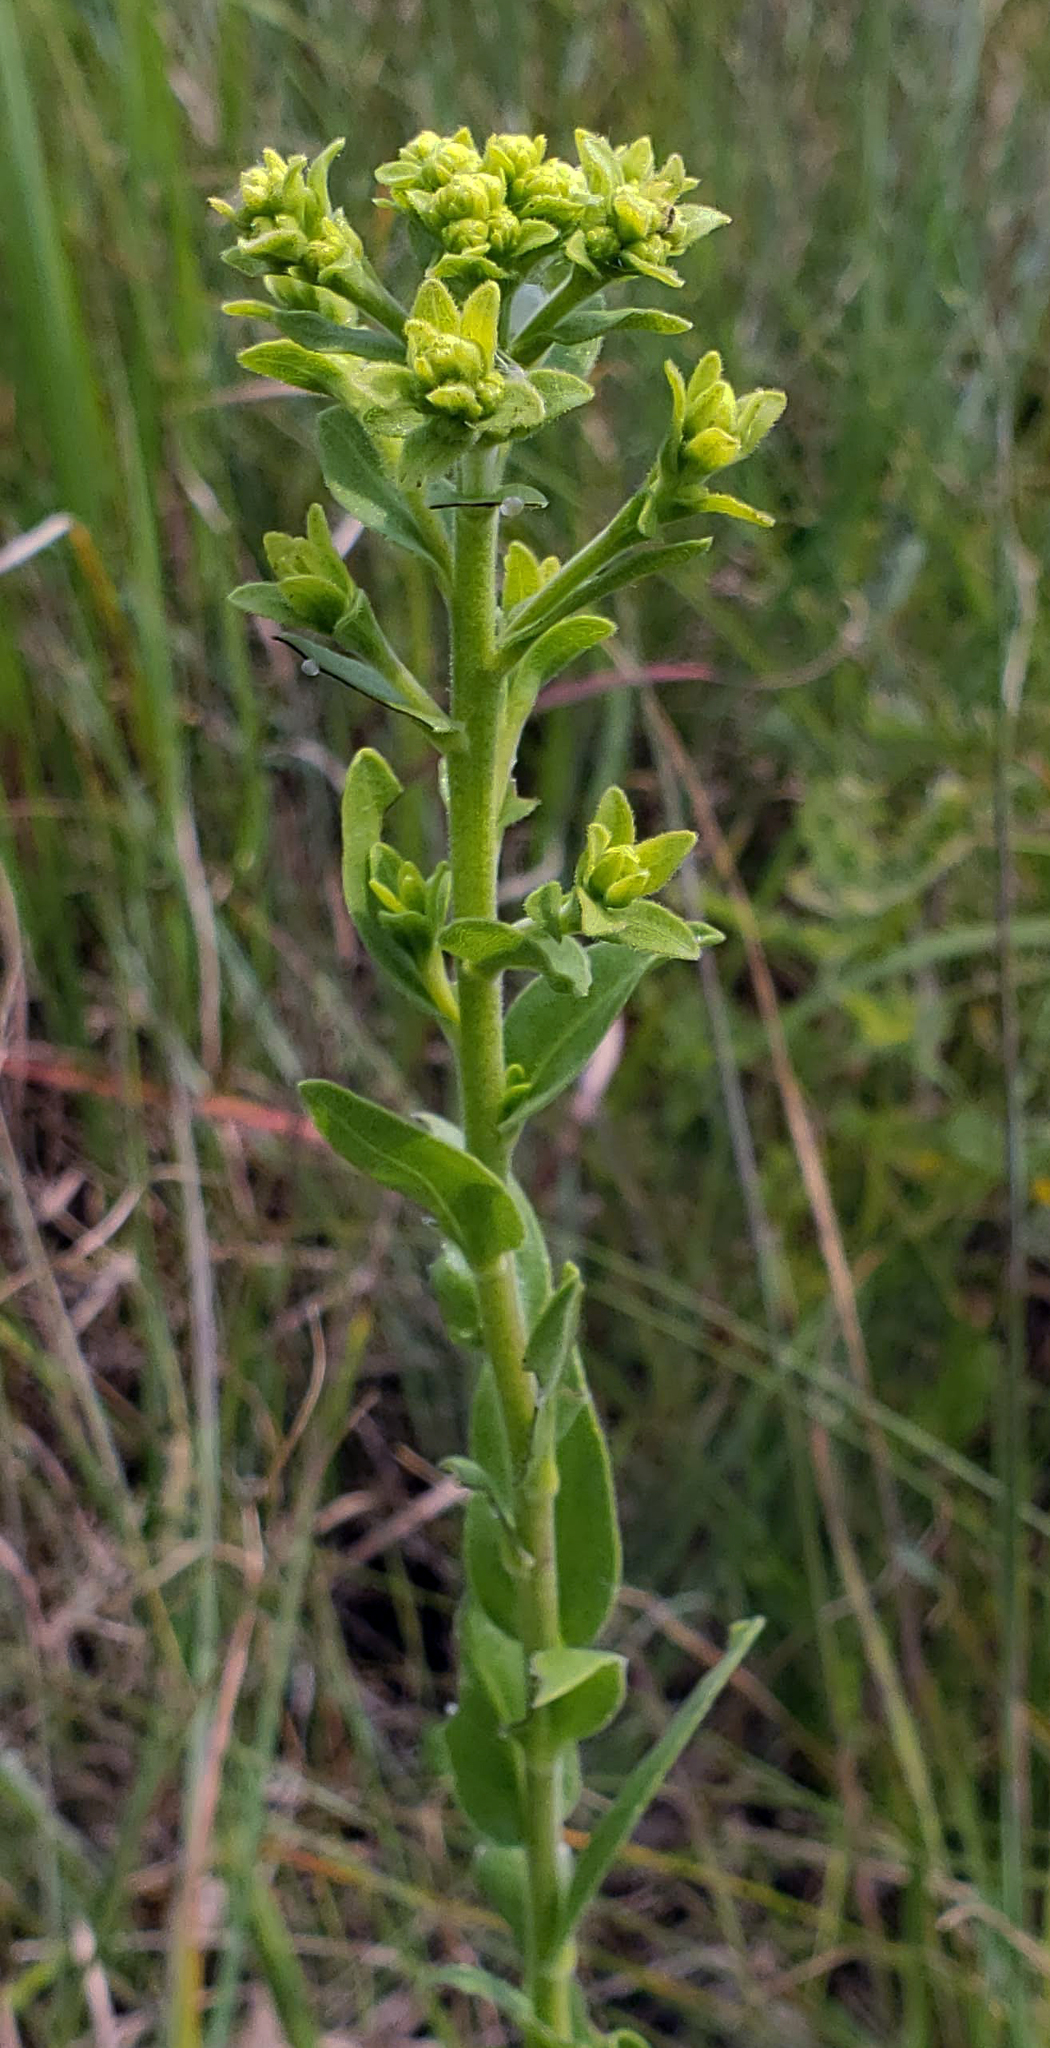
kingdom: Plantae
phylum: Tracheophyta
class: Magnoliopsida
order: Asterales
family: Asteraceae
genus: Solidago
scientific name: Solidago rigida
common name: Rigid goldenrod
